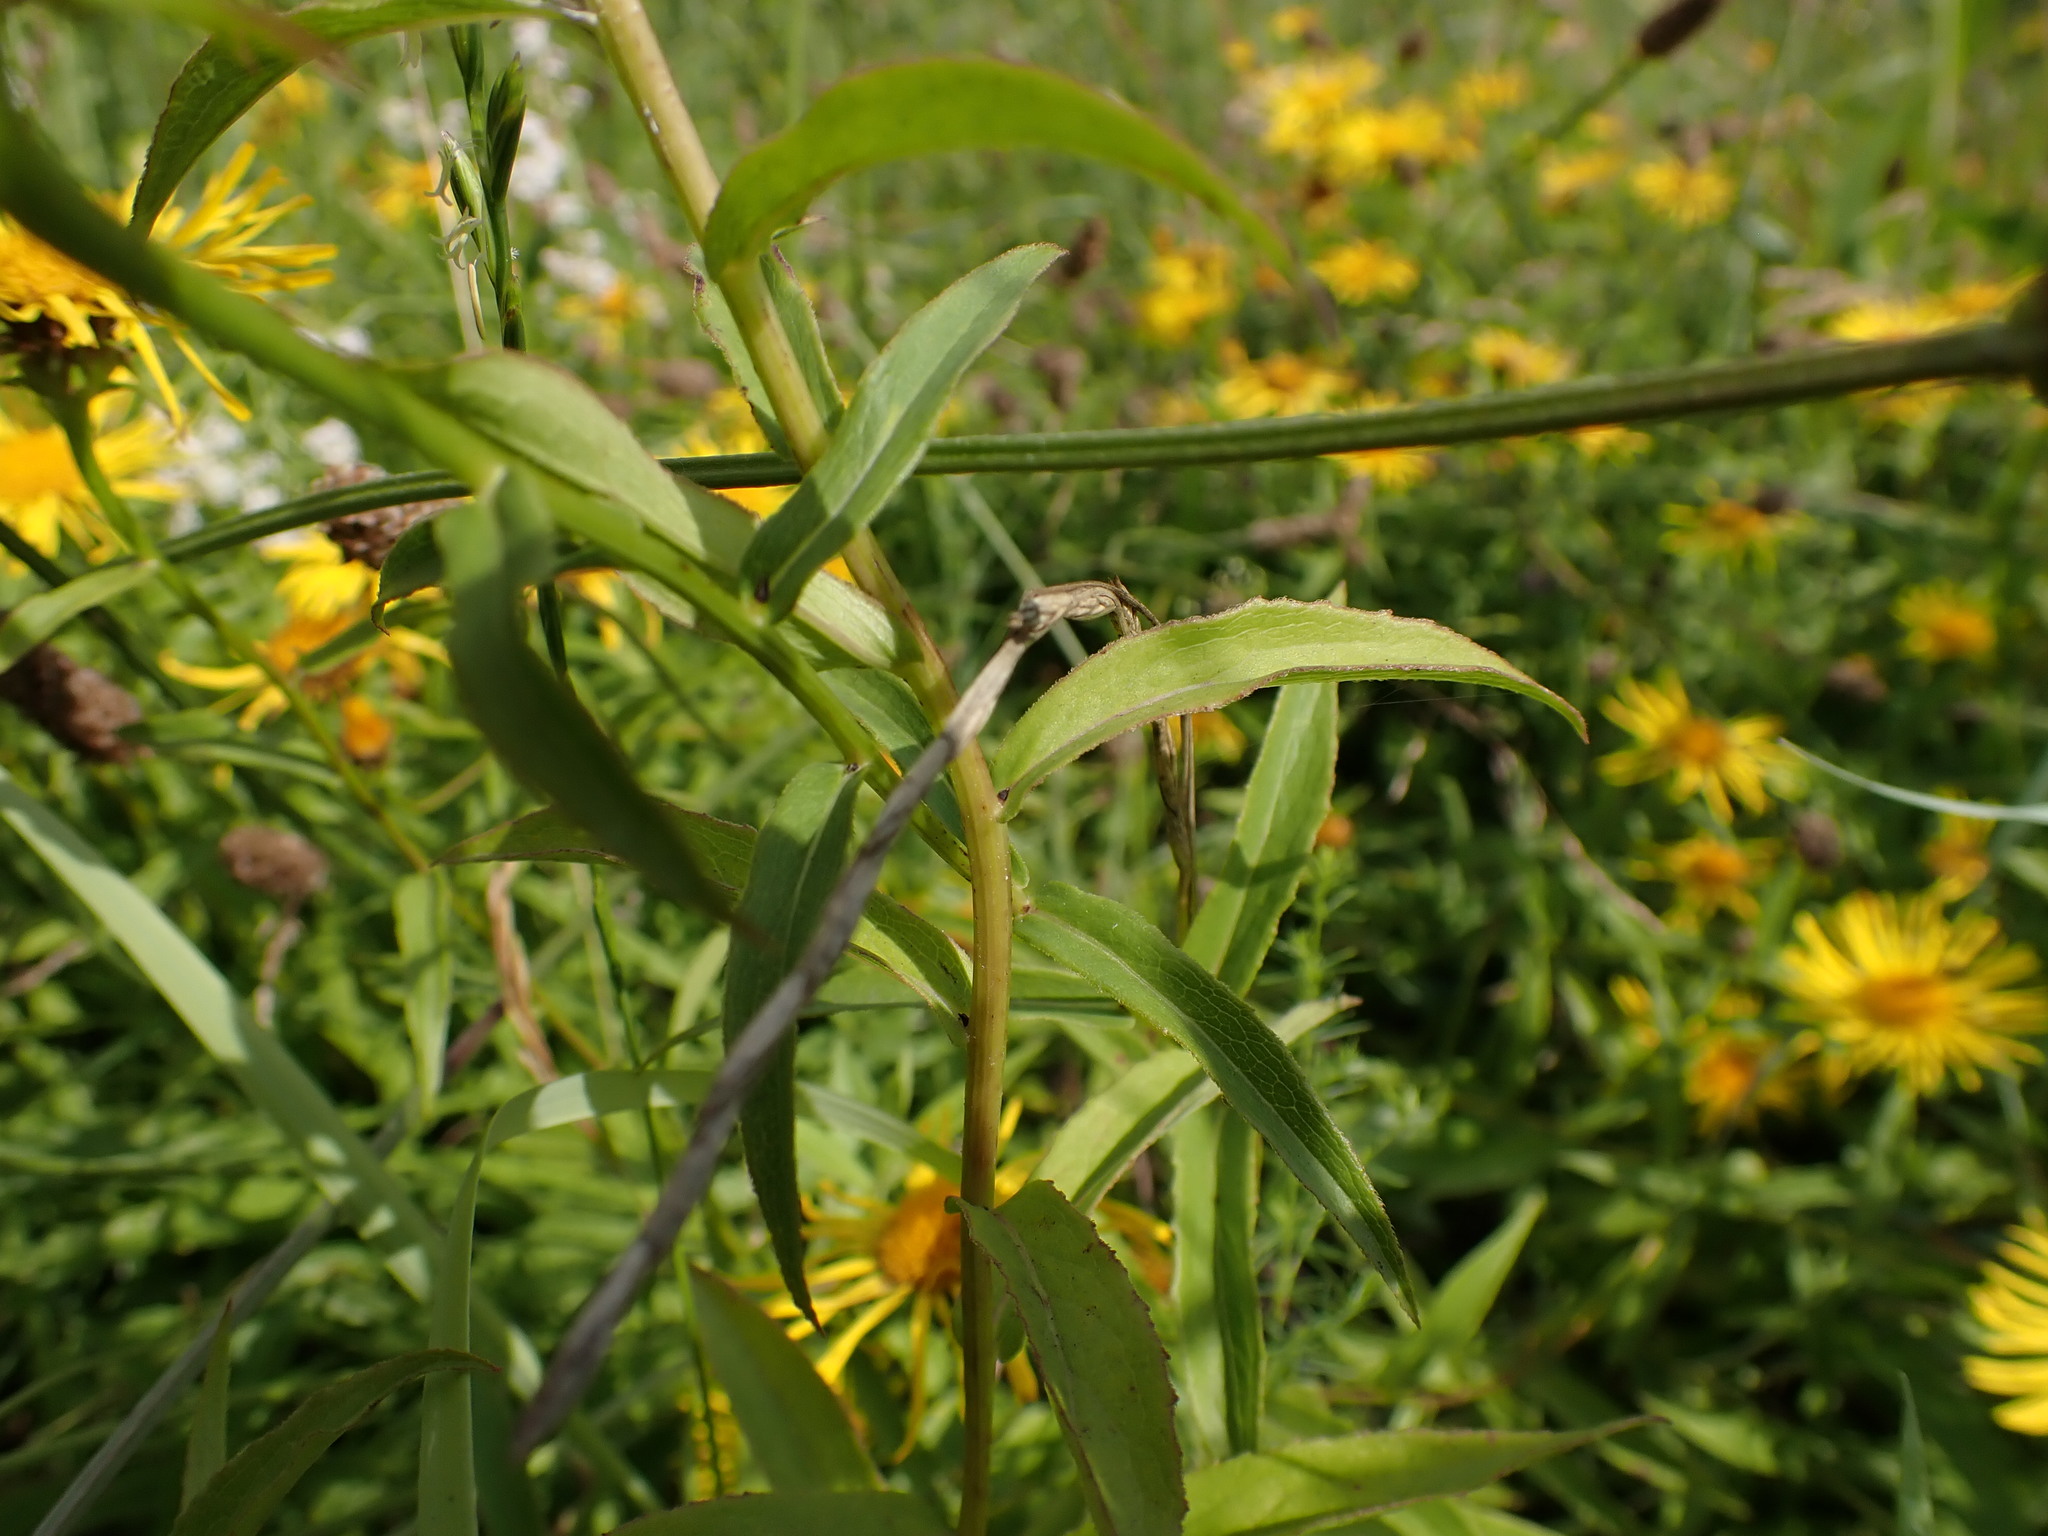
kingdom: Plantae
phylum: Tracheophyta
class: Magnoliopsida
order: Asterales
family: Asteraceae
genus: Pentanema
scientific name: Pentanema salicinum
